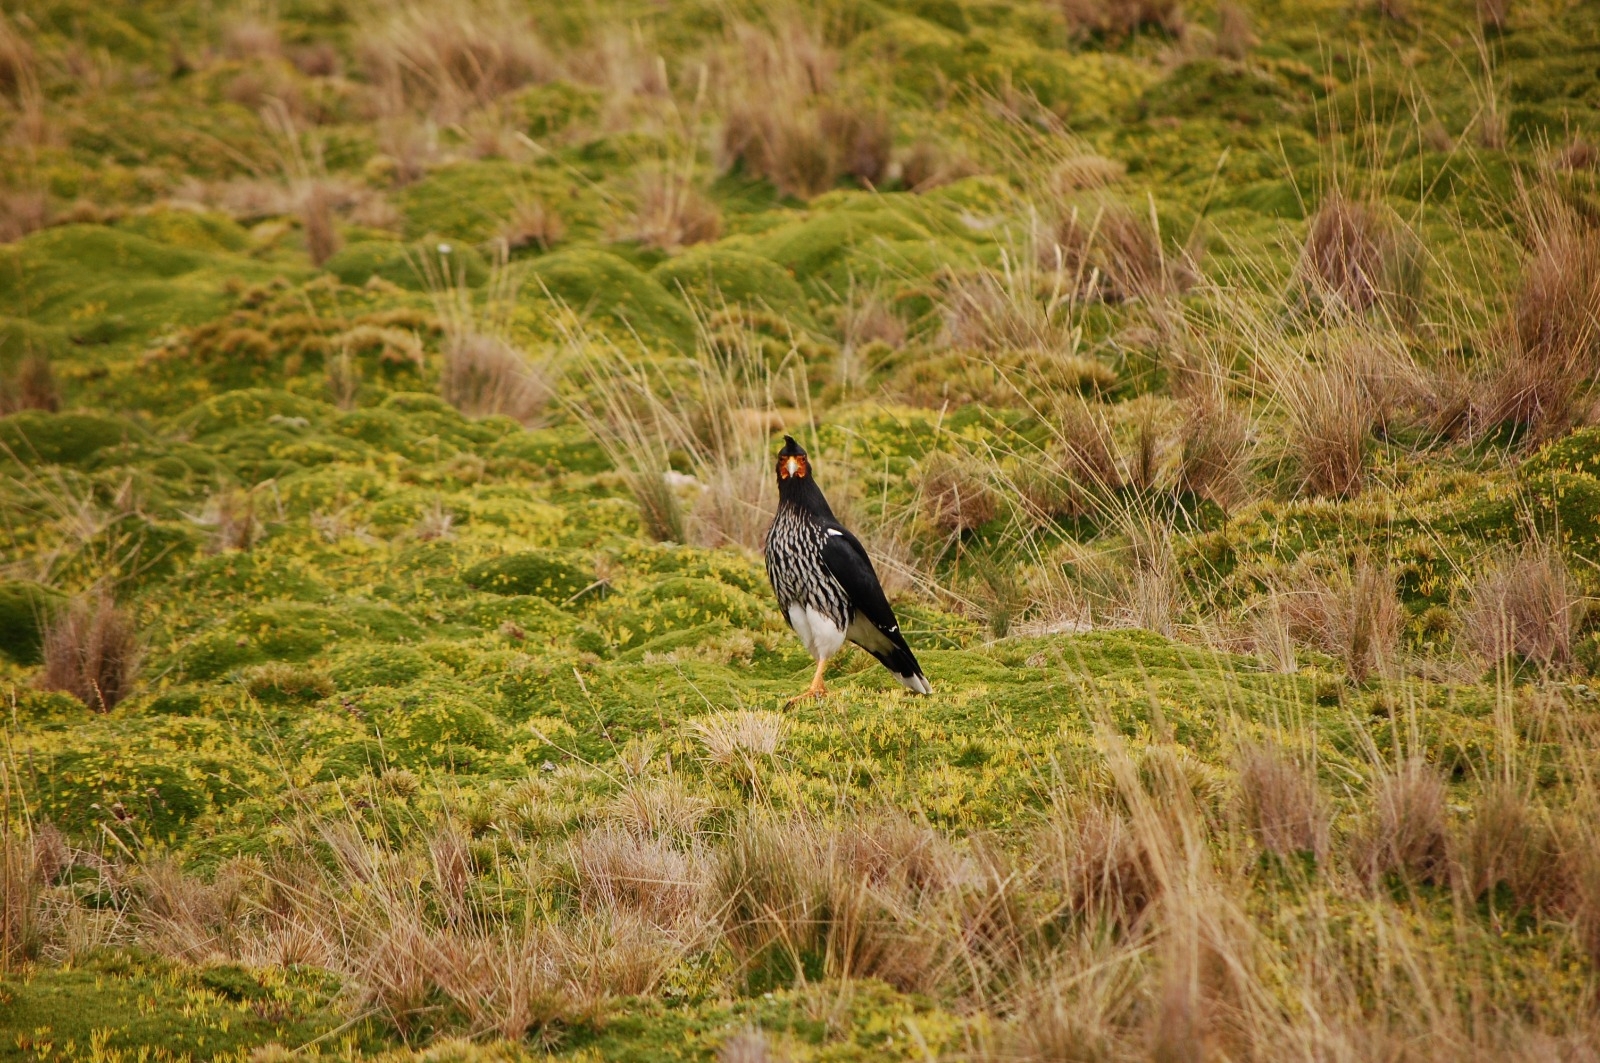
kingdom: Animalia
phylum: Chordata
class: Aves
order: Falconiformes
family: Falconidae
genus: Daptrius
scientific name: Daptrius
